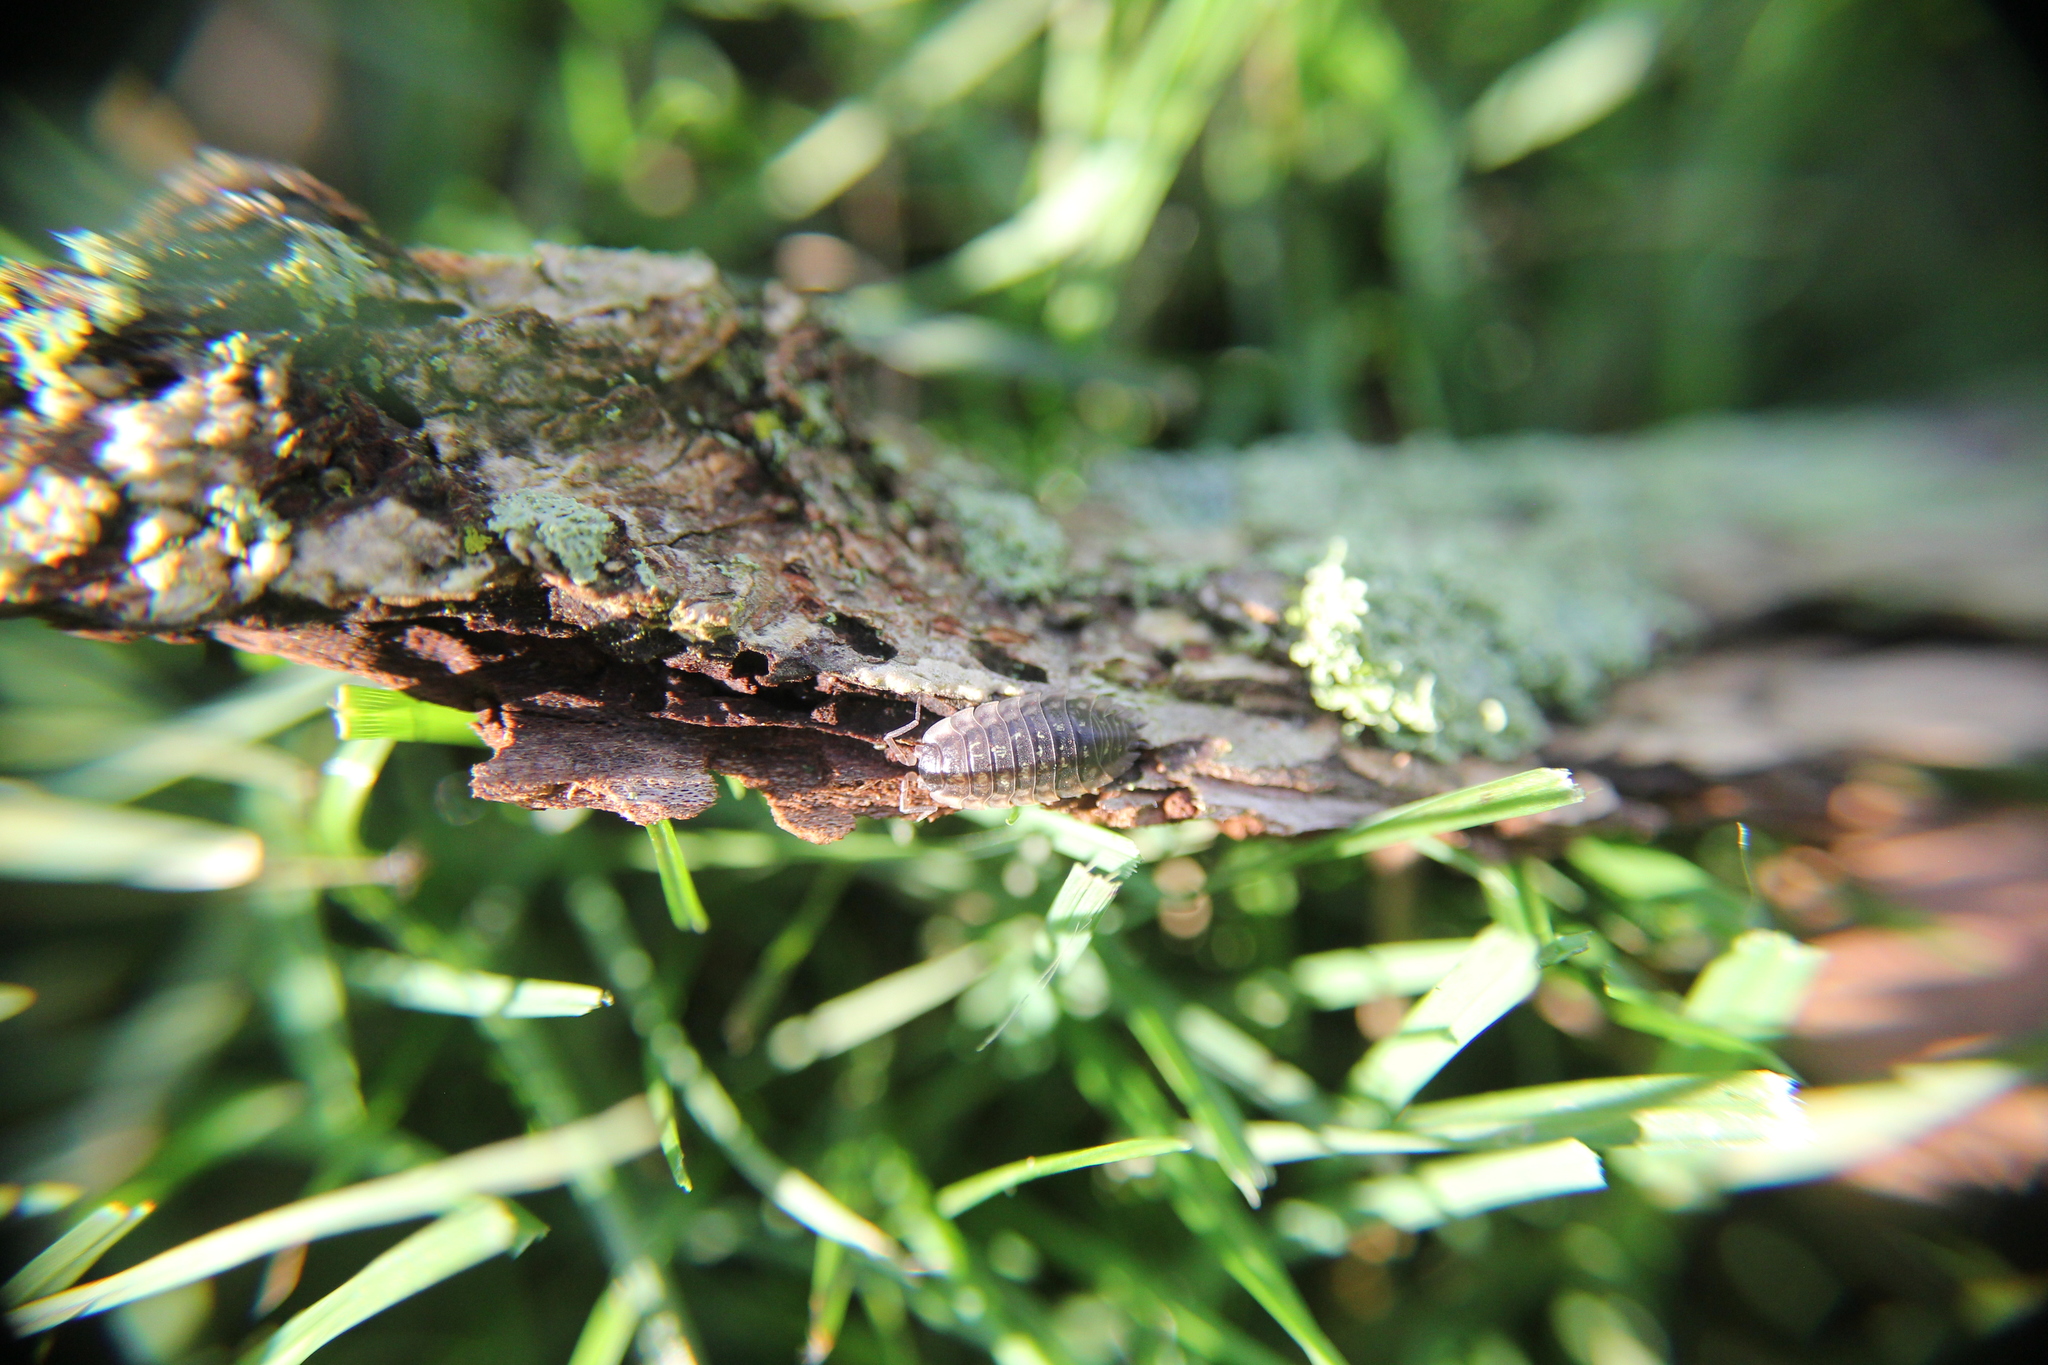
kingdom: Animalia
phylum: Arthropoda
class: Malacostraca
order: Isopoda
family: Oniscidae
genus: Oniscus
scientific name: Oniscus asellus
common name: Common shiny woodlouse
